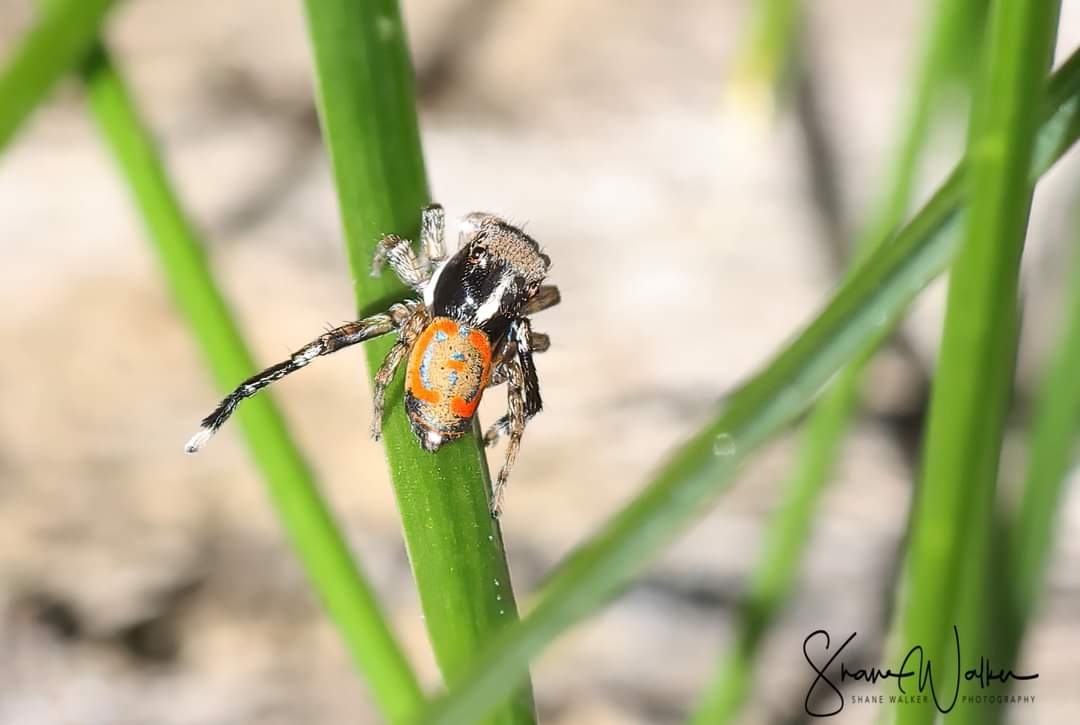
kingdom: Animalia
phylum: Arthropoda
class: Arachnida
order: Araneae
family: Salticidae
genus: Maratus
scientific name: Maratus pavonis
